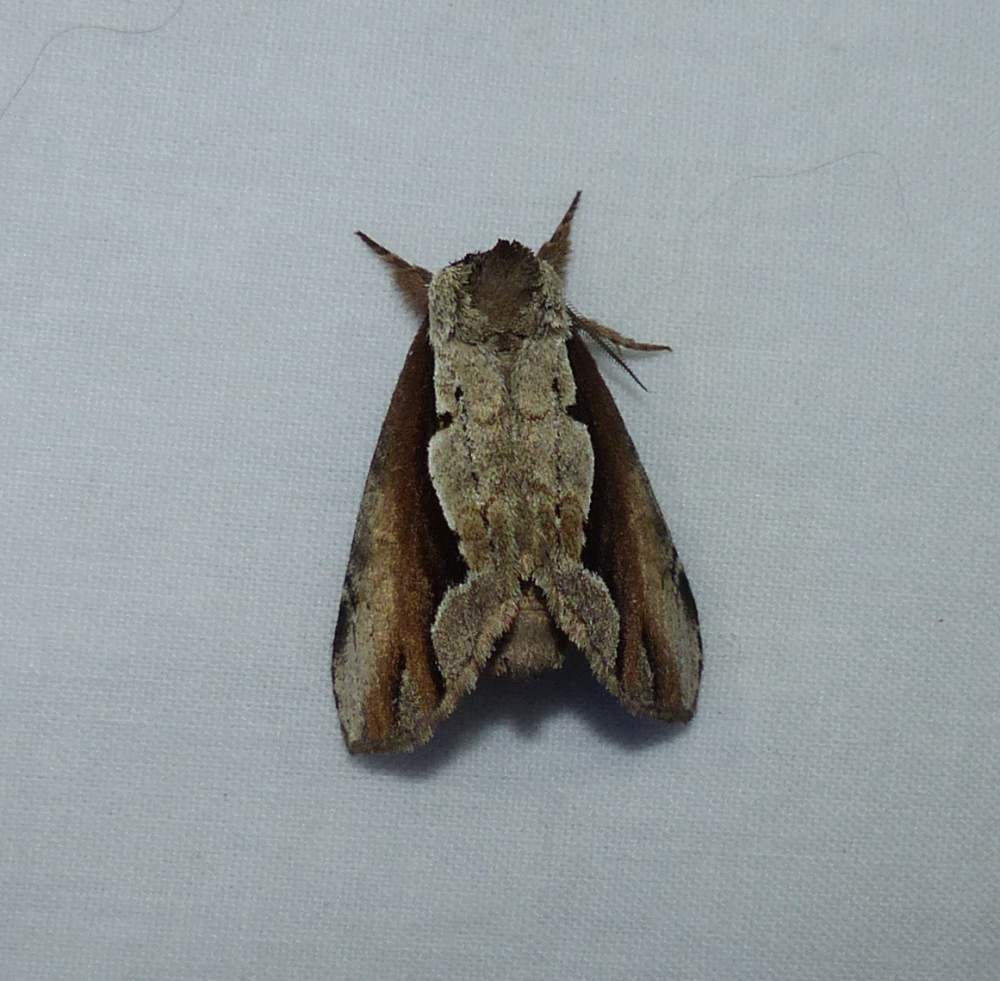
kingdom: Animalia
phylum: Arthropoda
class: Insecta
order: Lepidoptera
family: Notodontidae
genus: Nerice
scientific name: Nerice bidentata
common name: Double-toothed prominent
